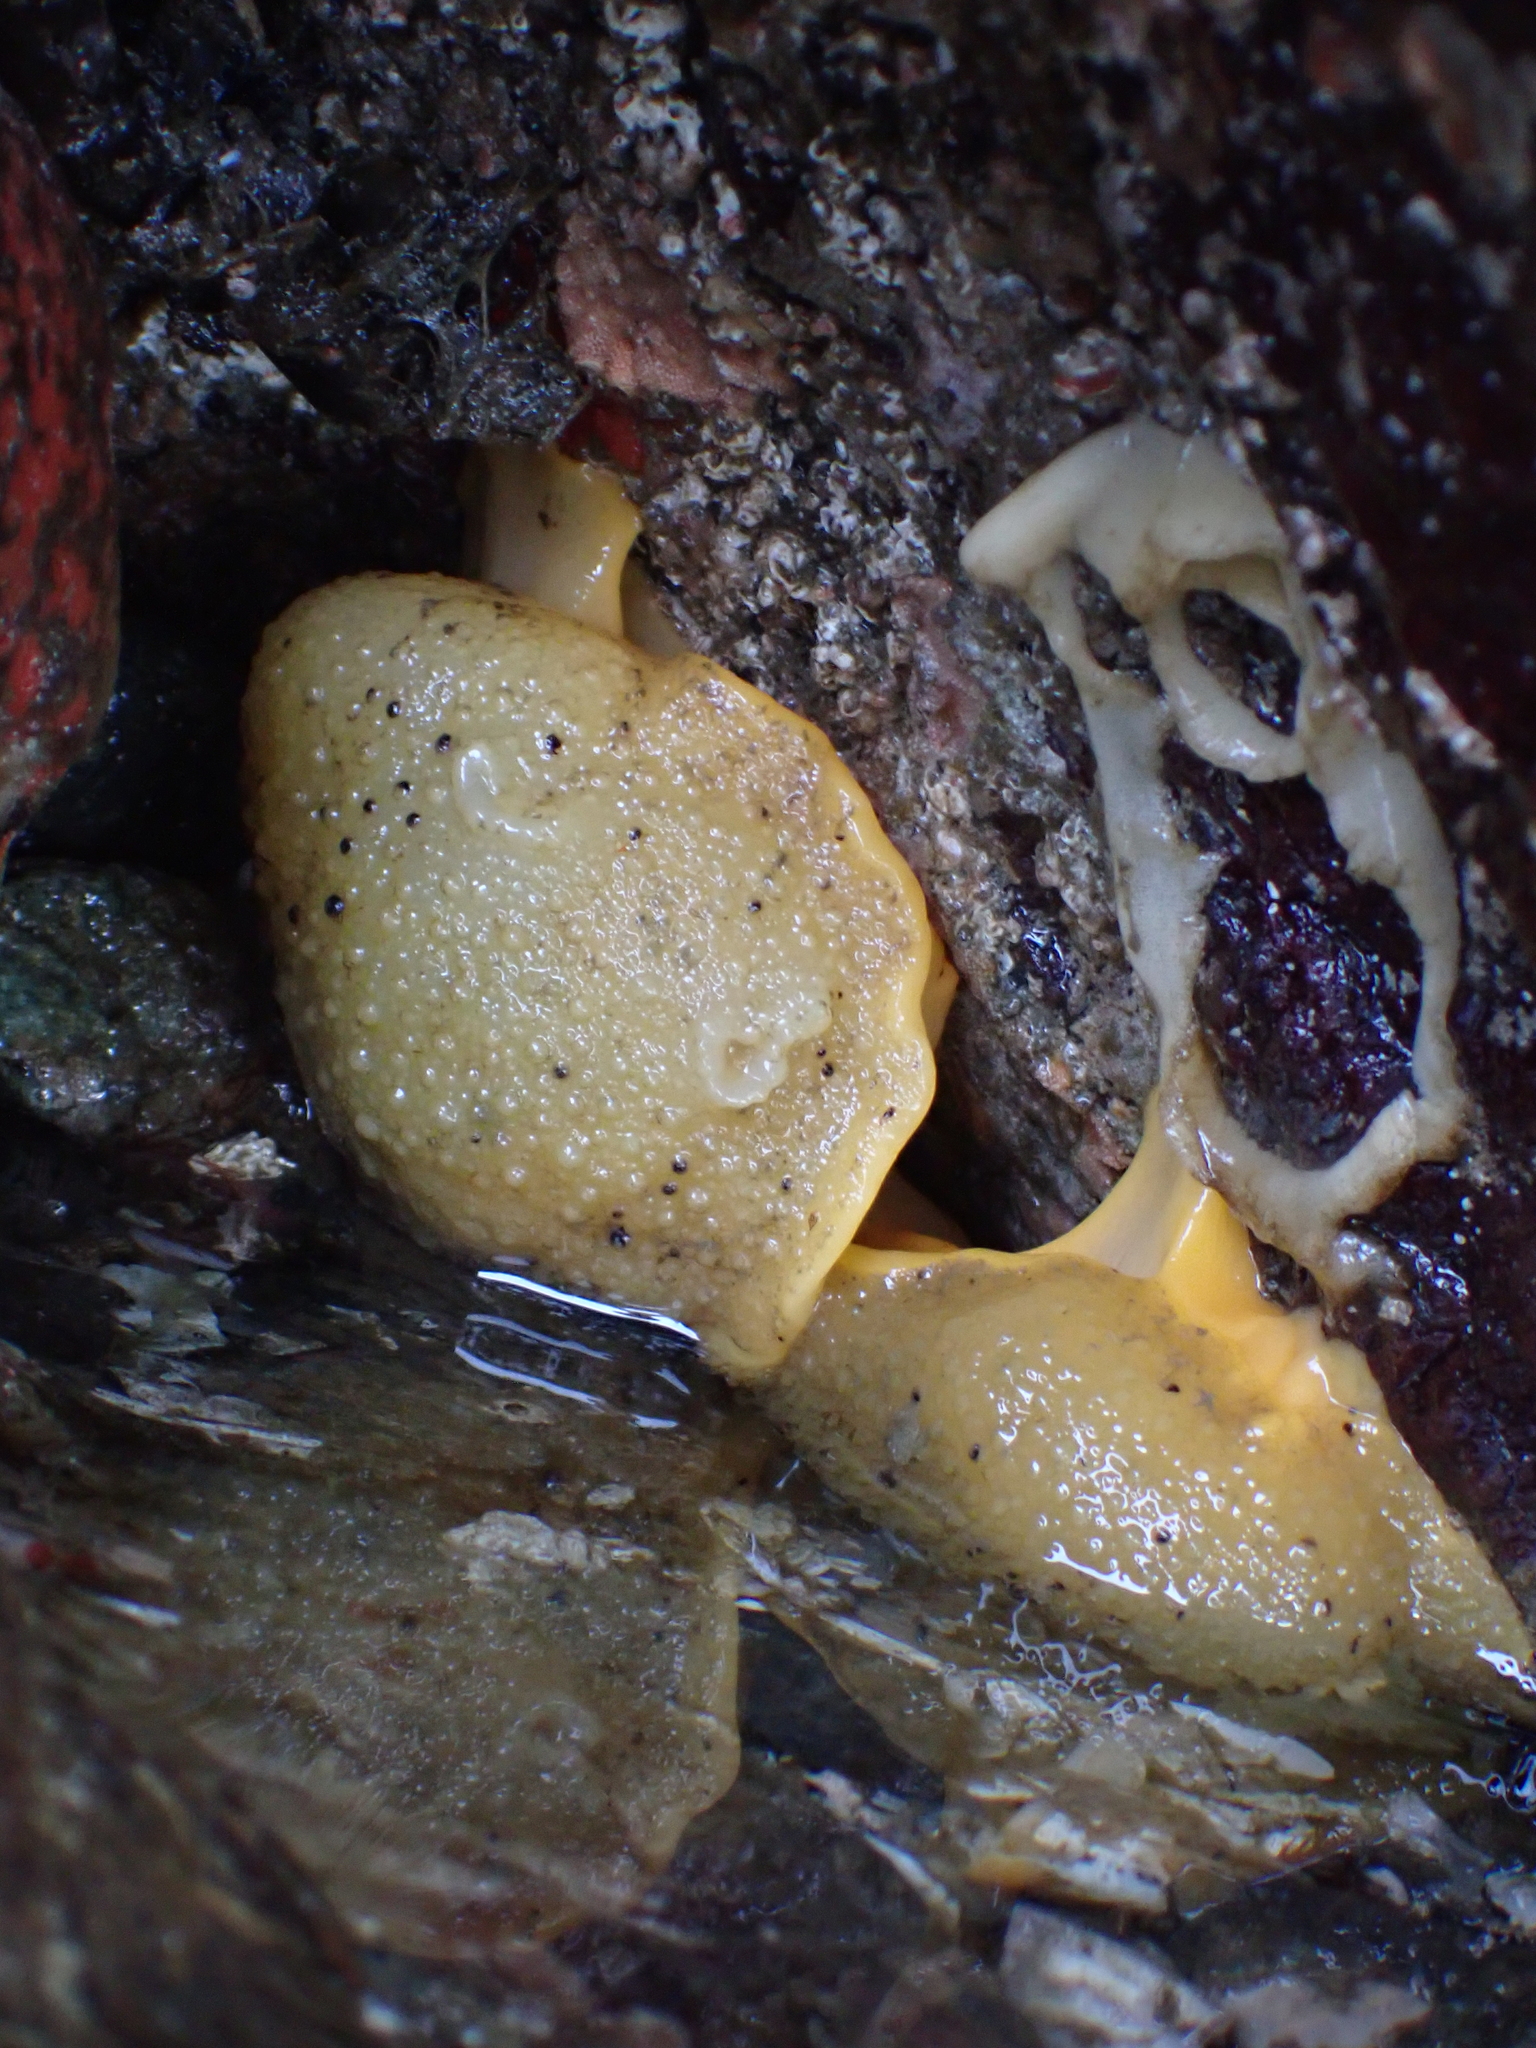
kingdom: Animalia
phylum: Mollusca
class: Gastropoda
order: Nudibranchia
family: Dorididae
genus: Doris
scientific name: Doris montereyensis
